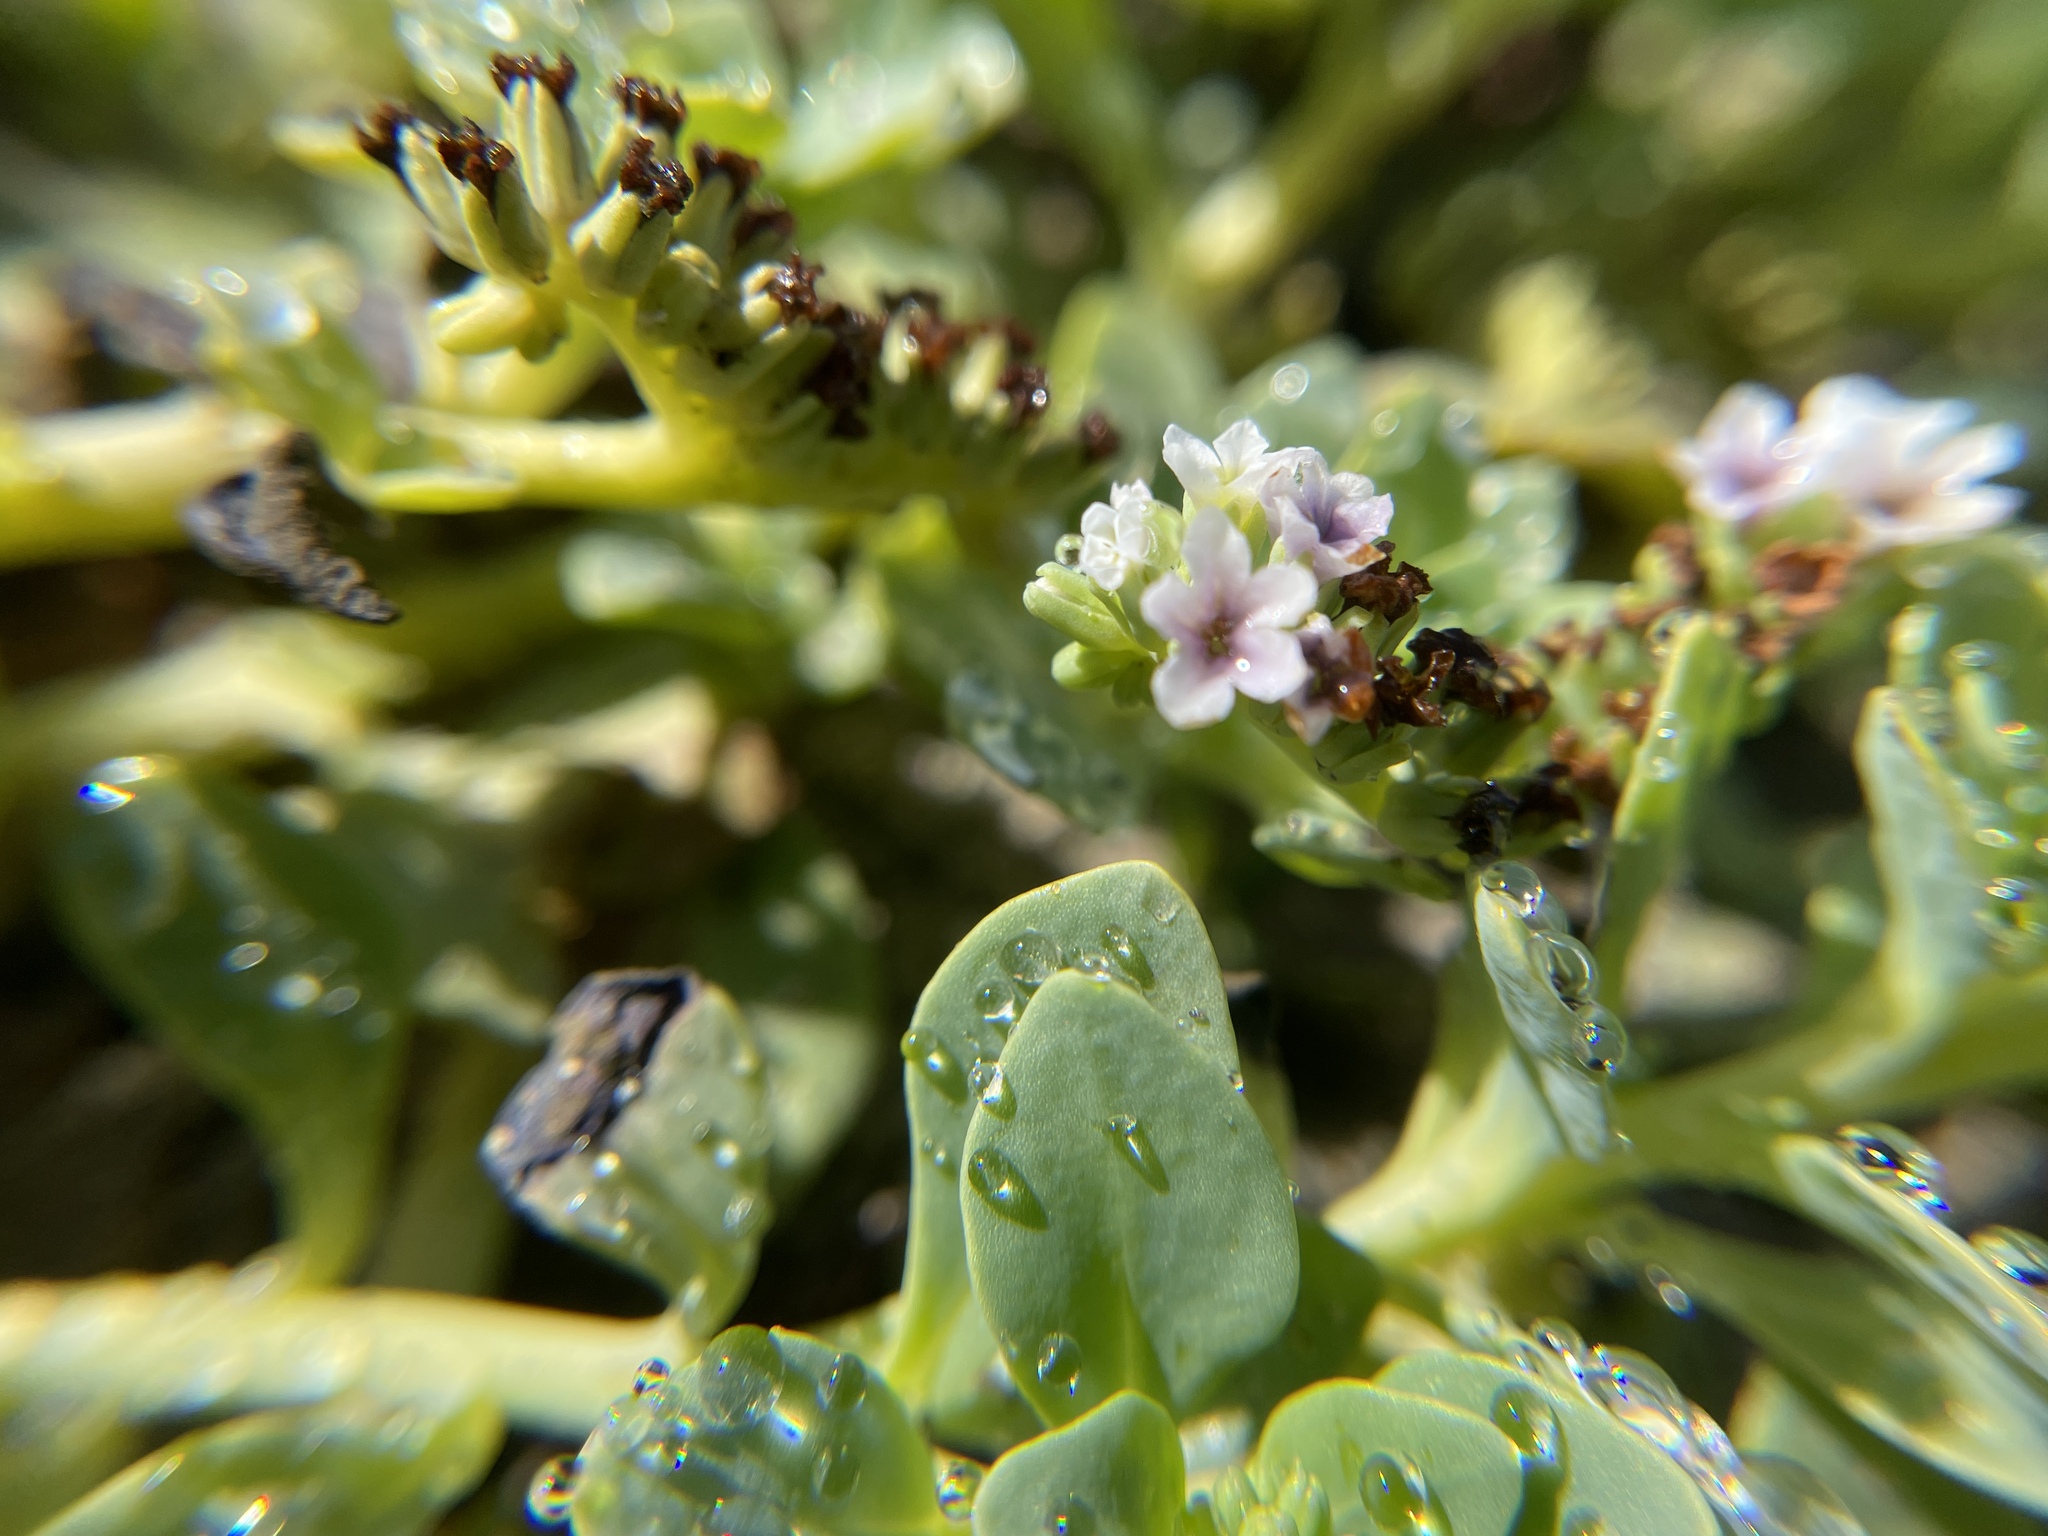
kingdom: Plantae
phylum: Tracheophyta
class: Magnoliopsida
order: Boraginales
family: Heliotropiaceae
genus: Heliotropium
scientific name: Heliotropium curassavicum
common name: Seaside heliotrope
